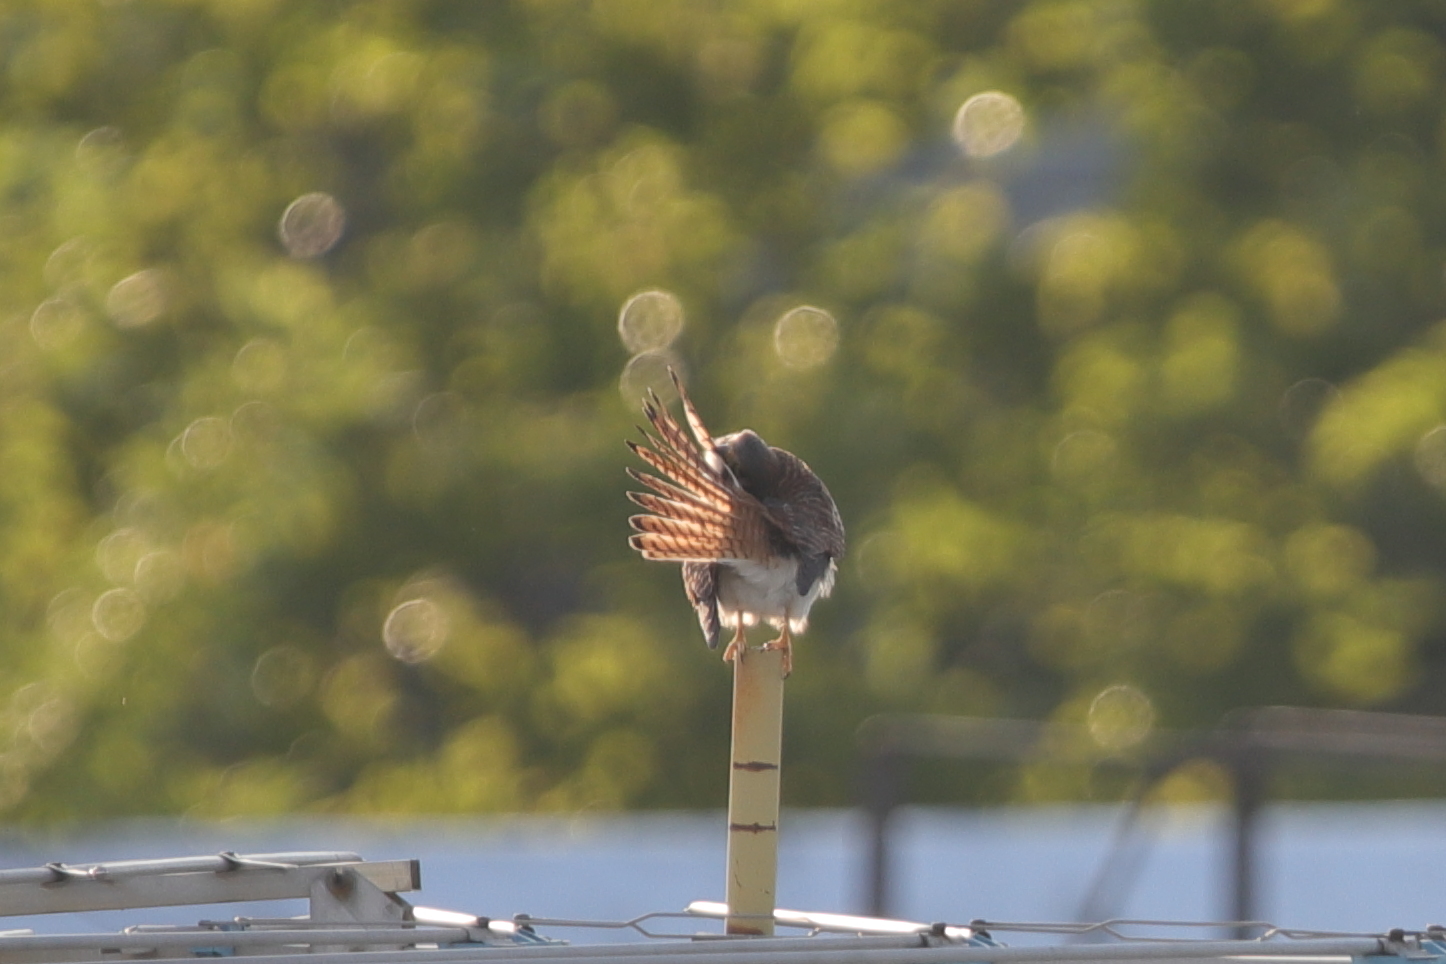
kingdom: Animalia
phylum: Chordata
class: Aves
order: Falconiformes
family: Falconidae
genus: Falco
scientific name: Falco sparverius
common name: American kestrel
